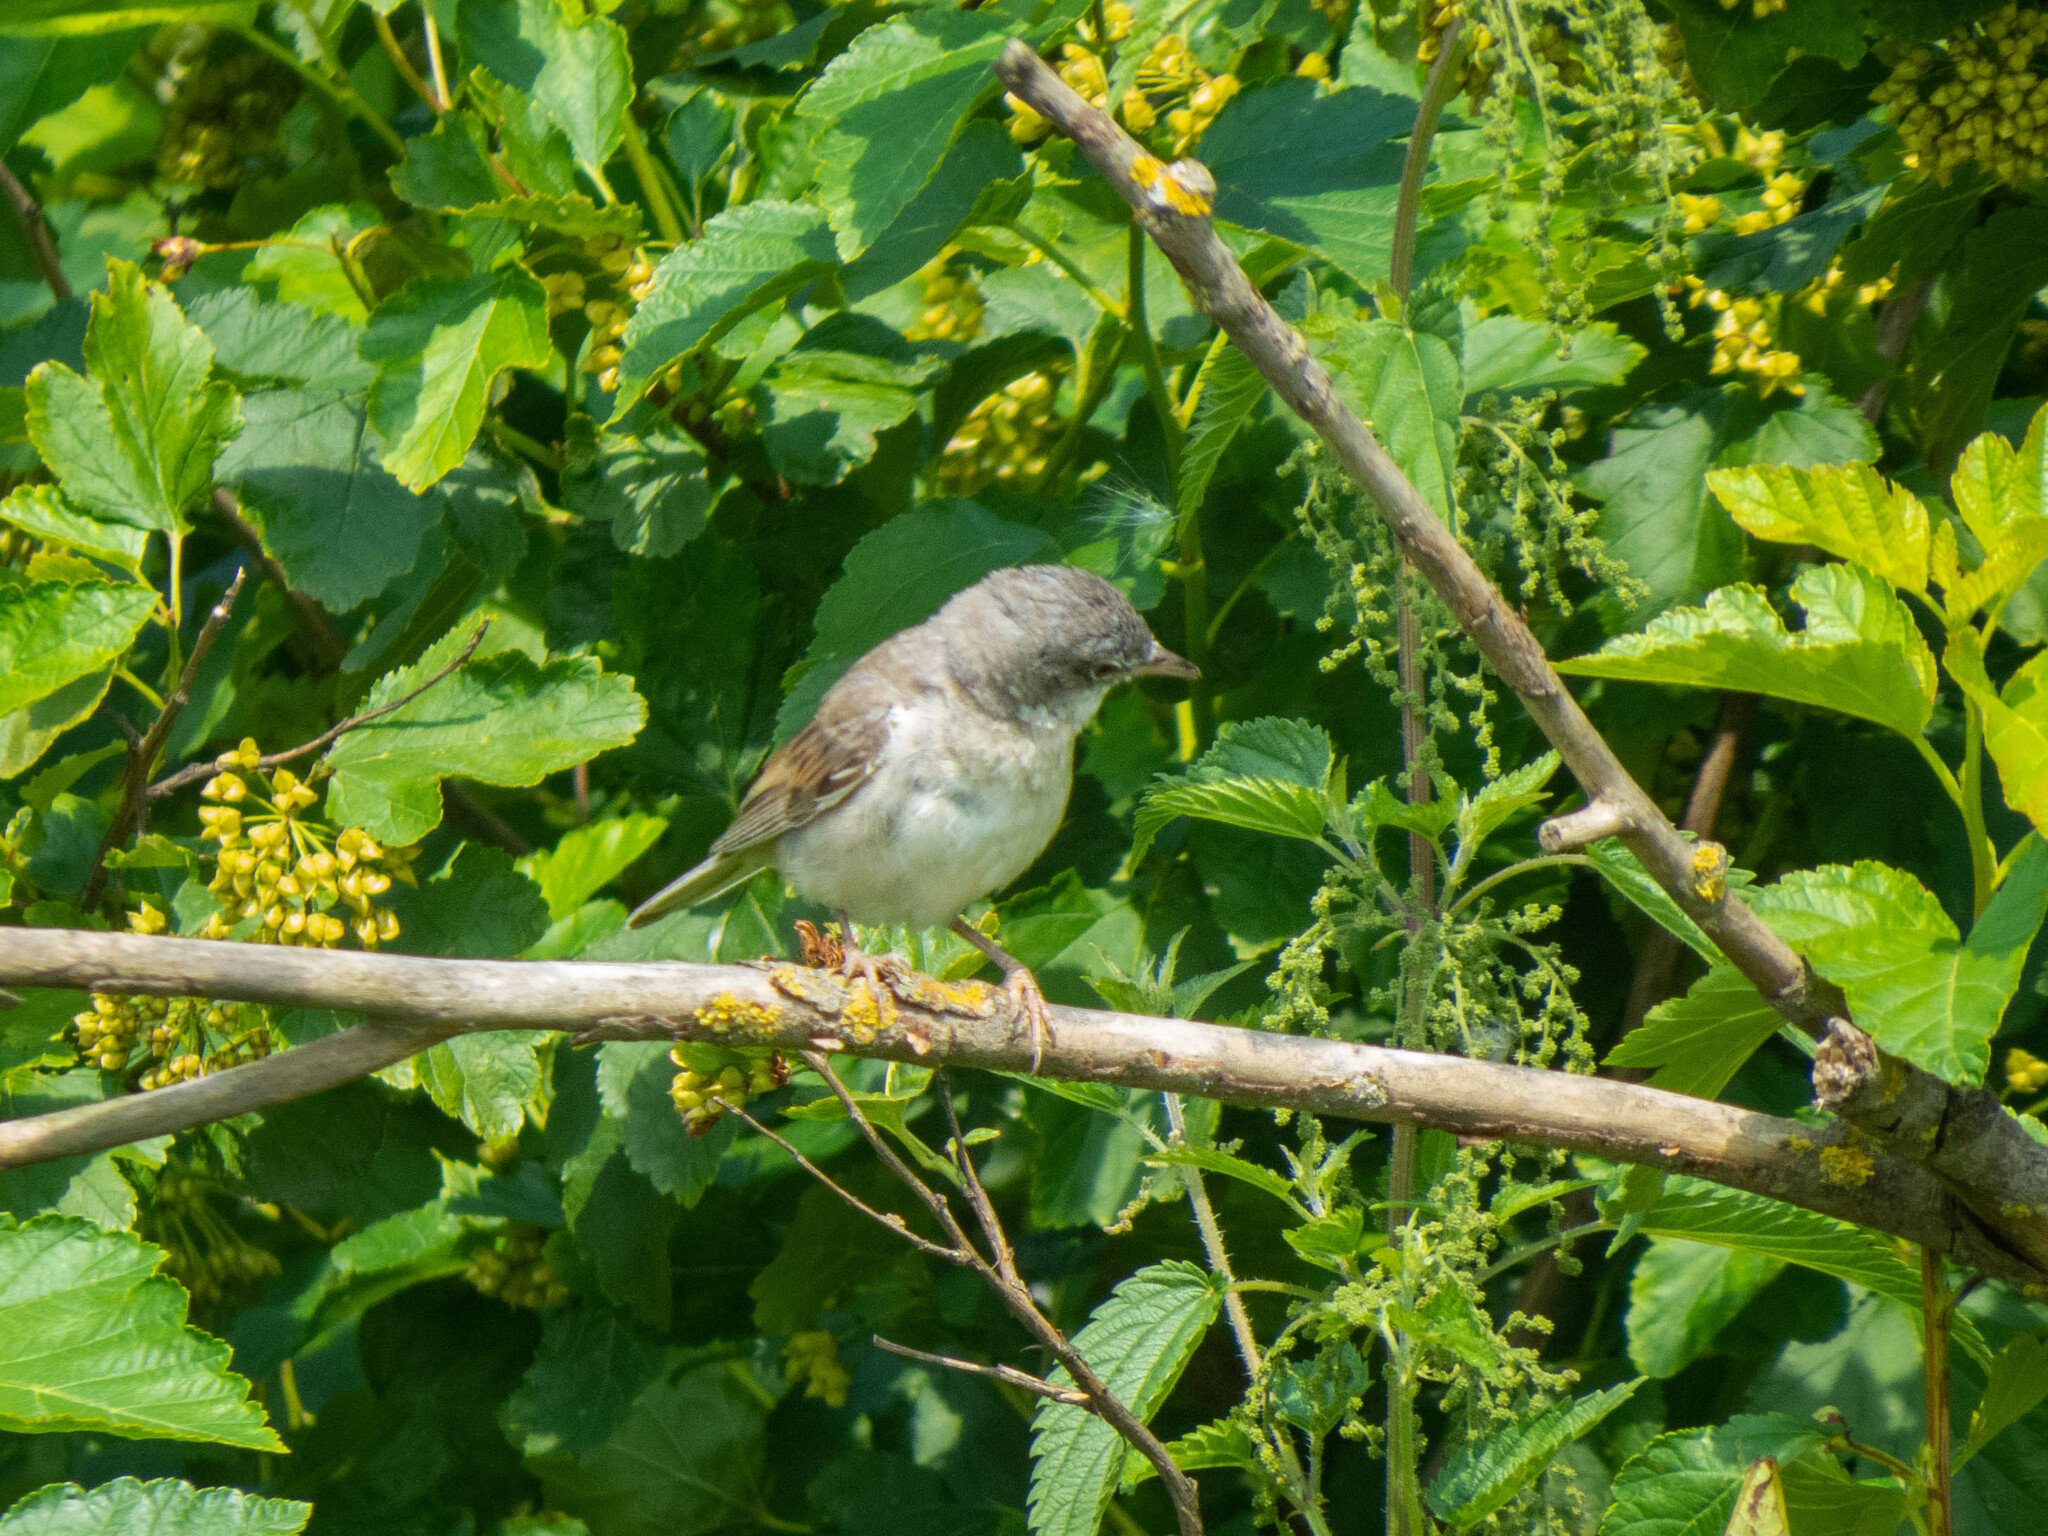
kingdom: Animalia
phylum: Chordata
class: Aves
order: Passeriformes
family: Sylviidae
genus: Sylvia
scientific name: Sylvia communis
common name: Common whitethroat
